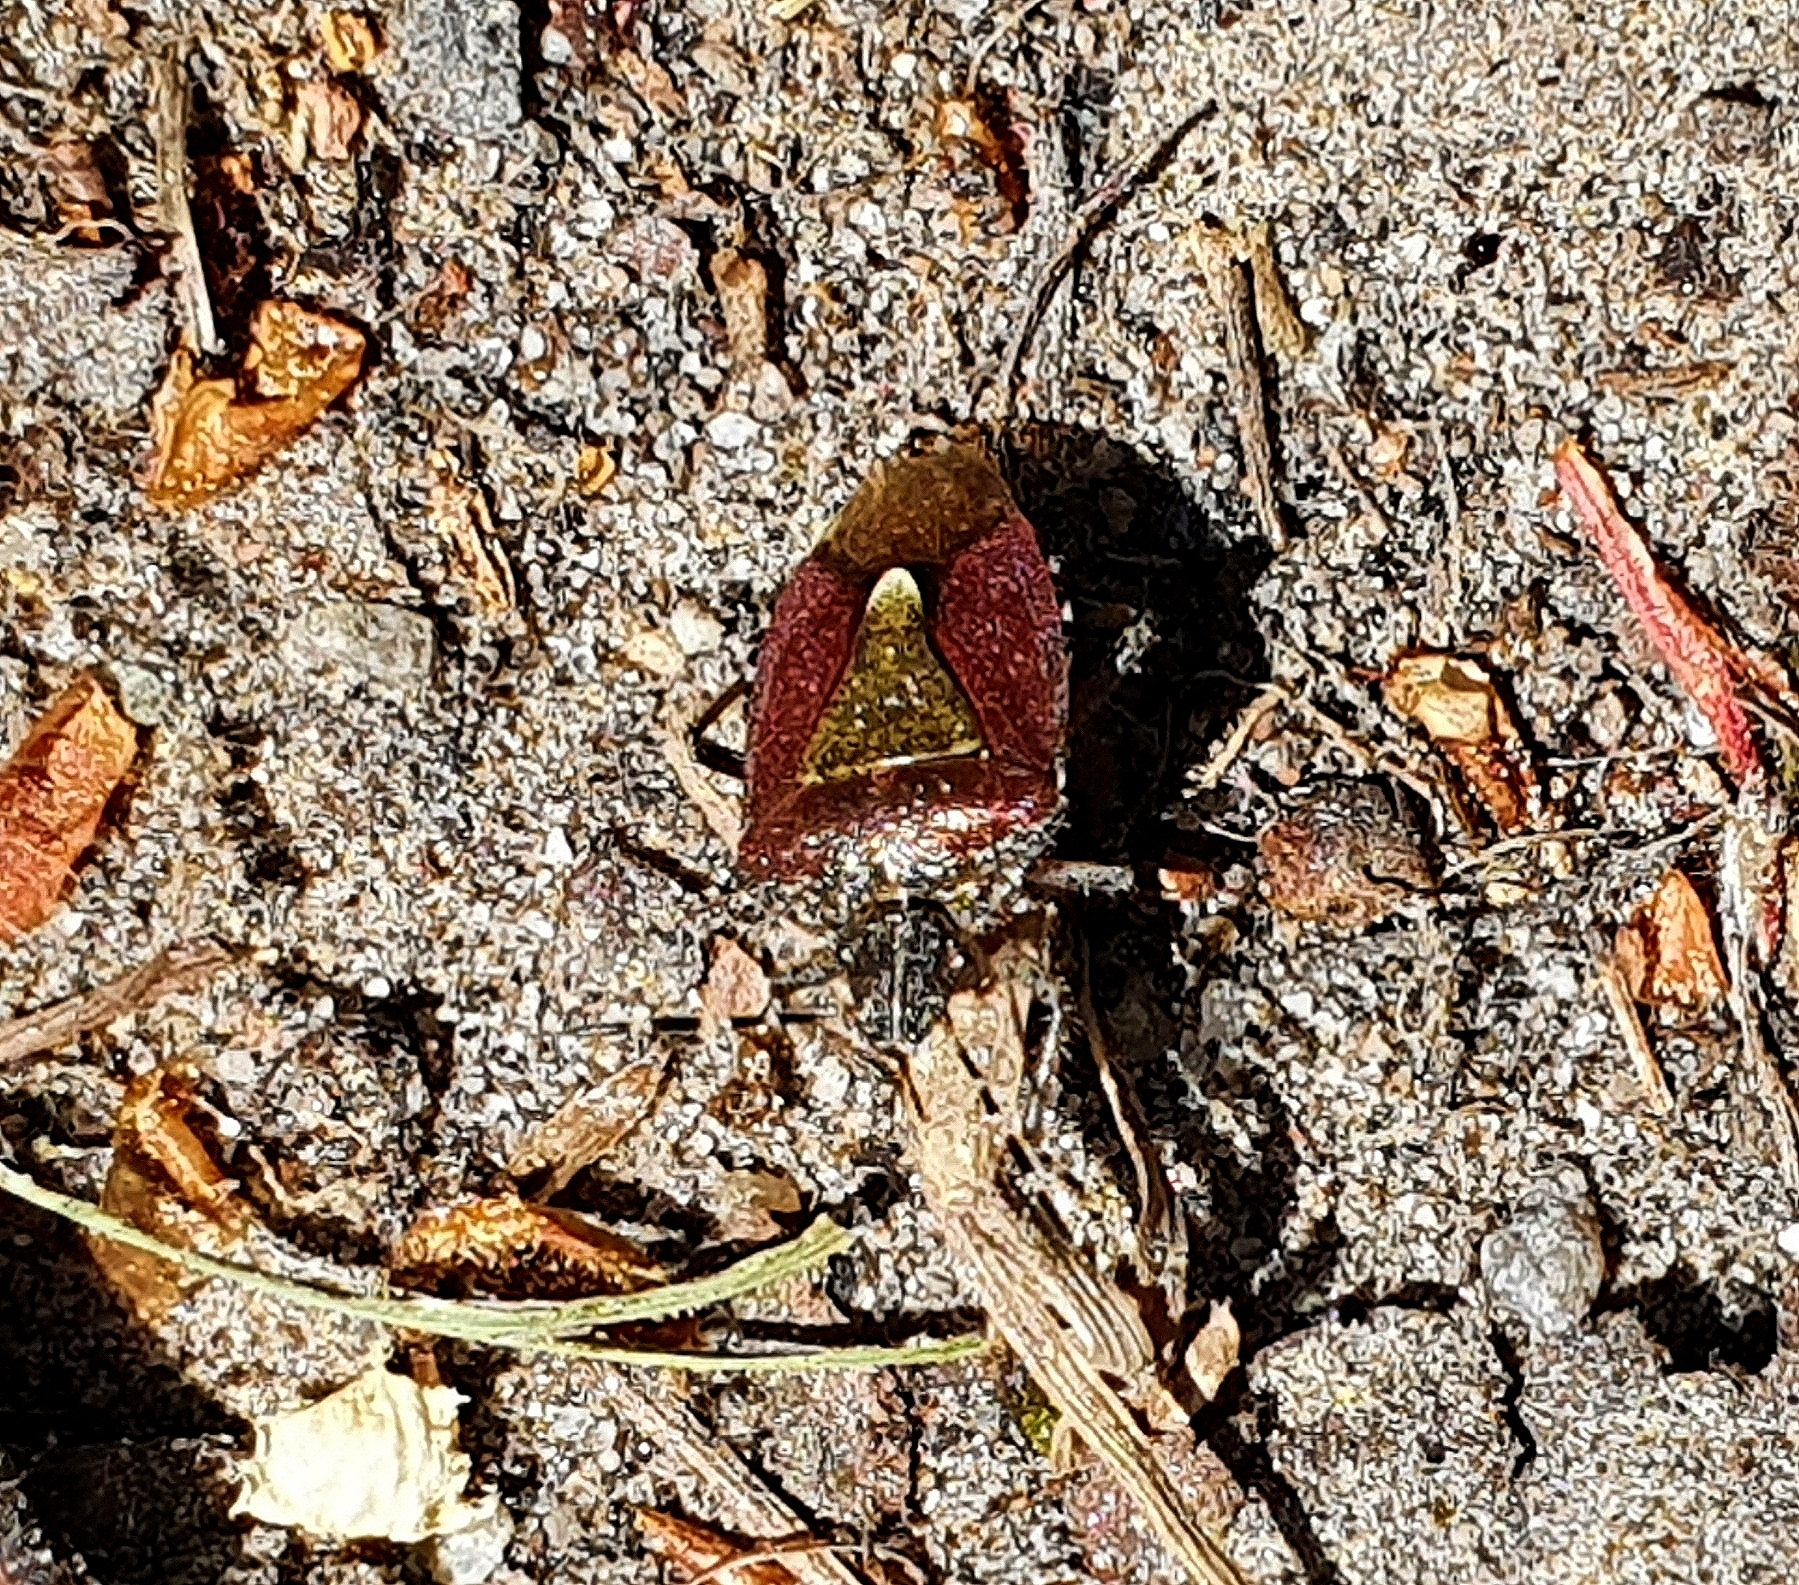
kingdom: Animalia
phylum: Arthropoda
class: Insecta
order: Hemiptera
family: Pentatomidae
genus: Dolycoris
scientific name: Dolycoris baccarum
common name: Sloe bug
